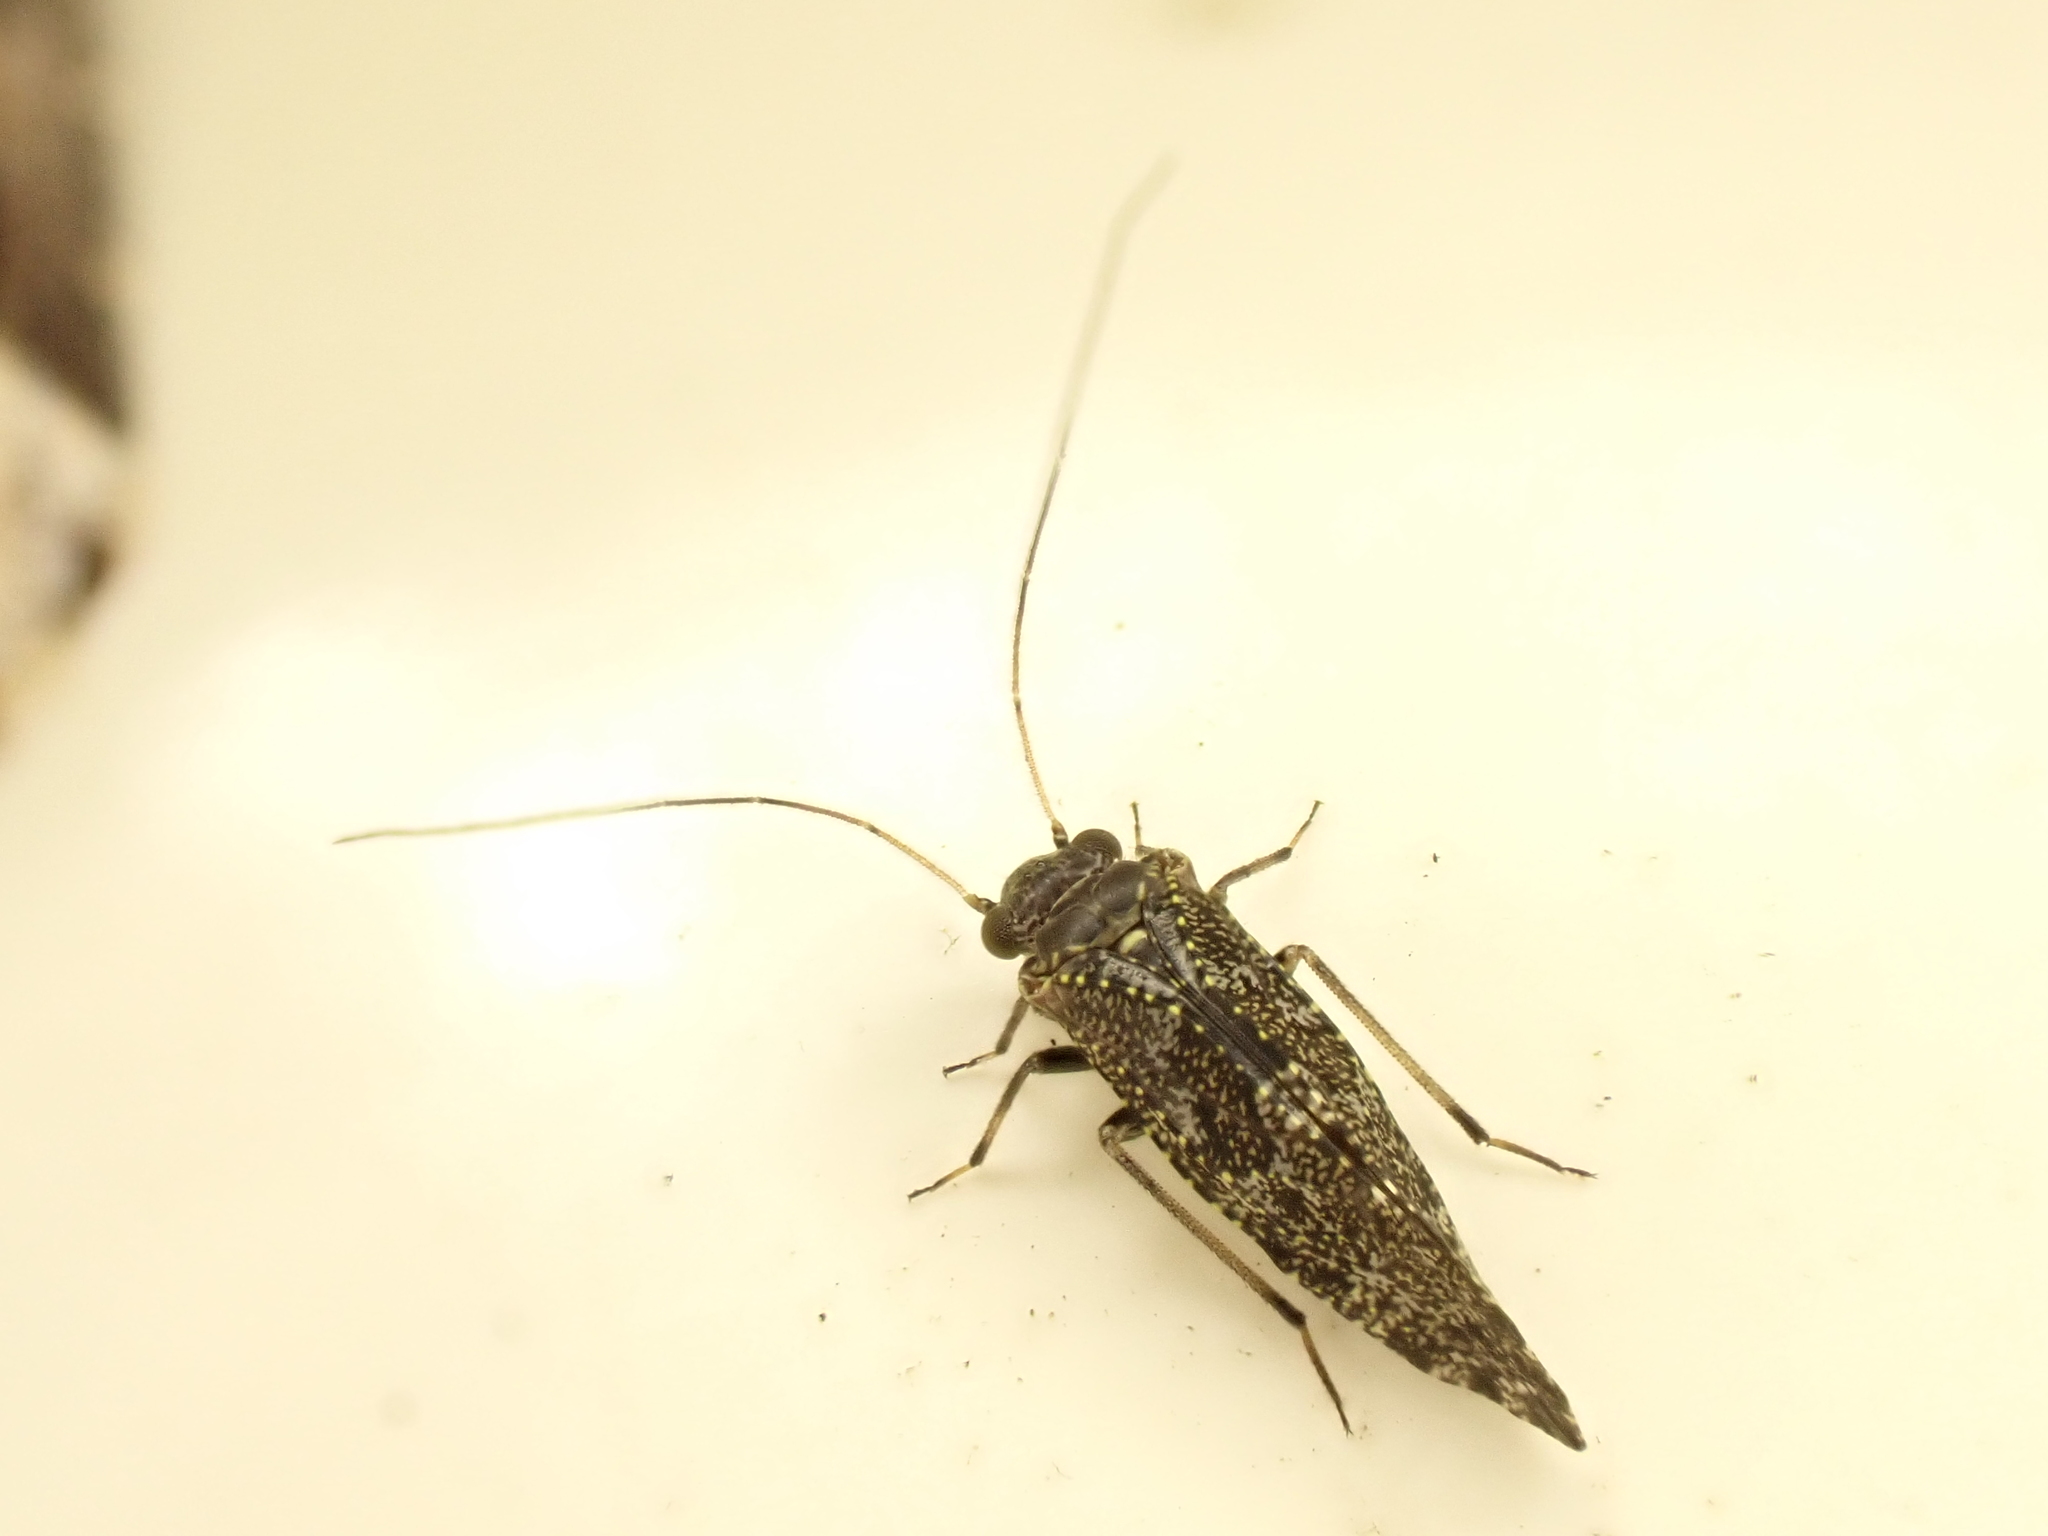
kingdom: Animalia
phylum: Arthropoda
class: Insecta
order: Psocodea
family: Myopsocidae
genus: Nimbopsocus
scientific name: Nimbopsocus australis
